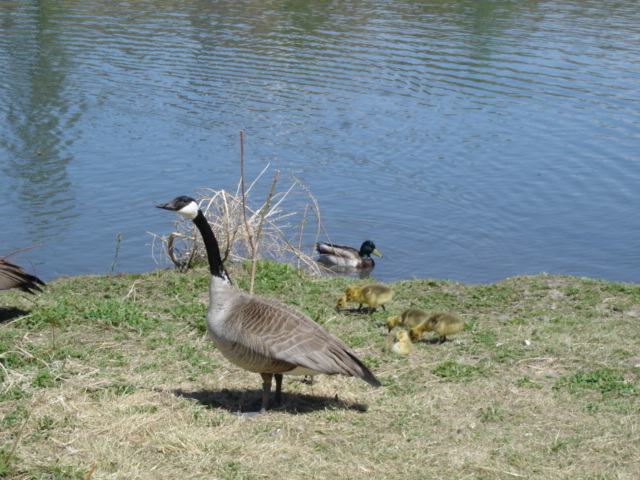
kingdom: Animalia
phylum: Chordata
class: Aves
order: Anseriformes
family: Anatidae
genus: Branta
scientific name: Branta canadensis
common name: Canada goose
